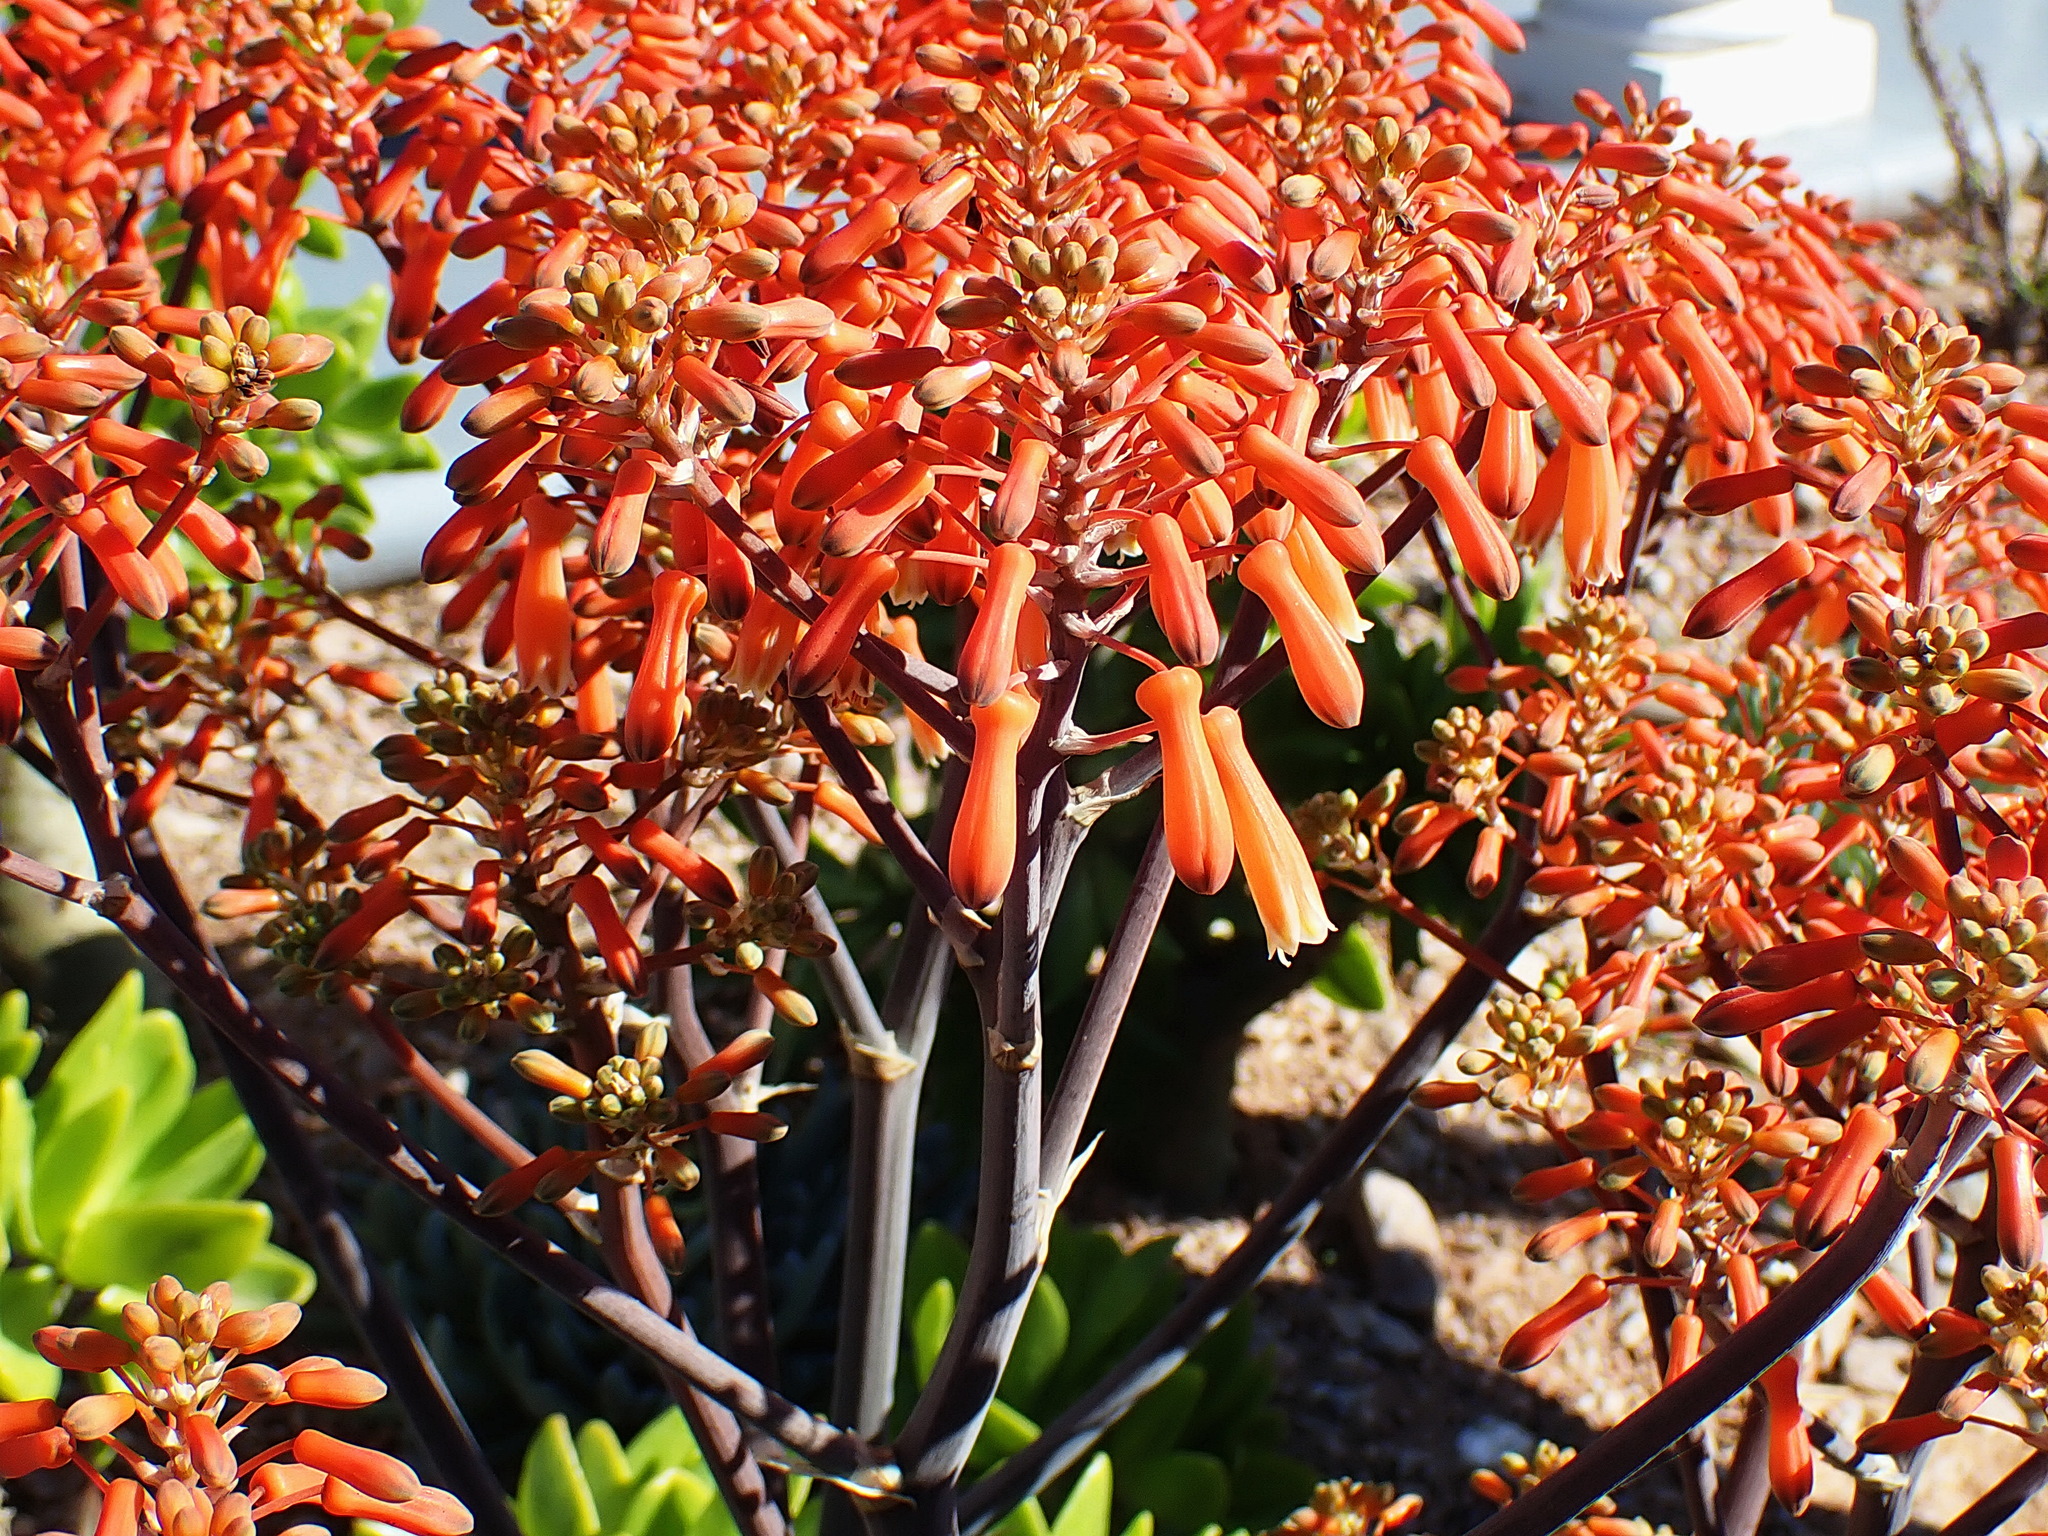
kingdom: Plantae
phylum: Tracheophyta
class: Liliopsida
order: Asparagales
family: Asphodelaceae
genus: Aloe
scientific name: Aloe striata
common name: Coral aloe
